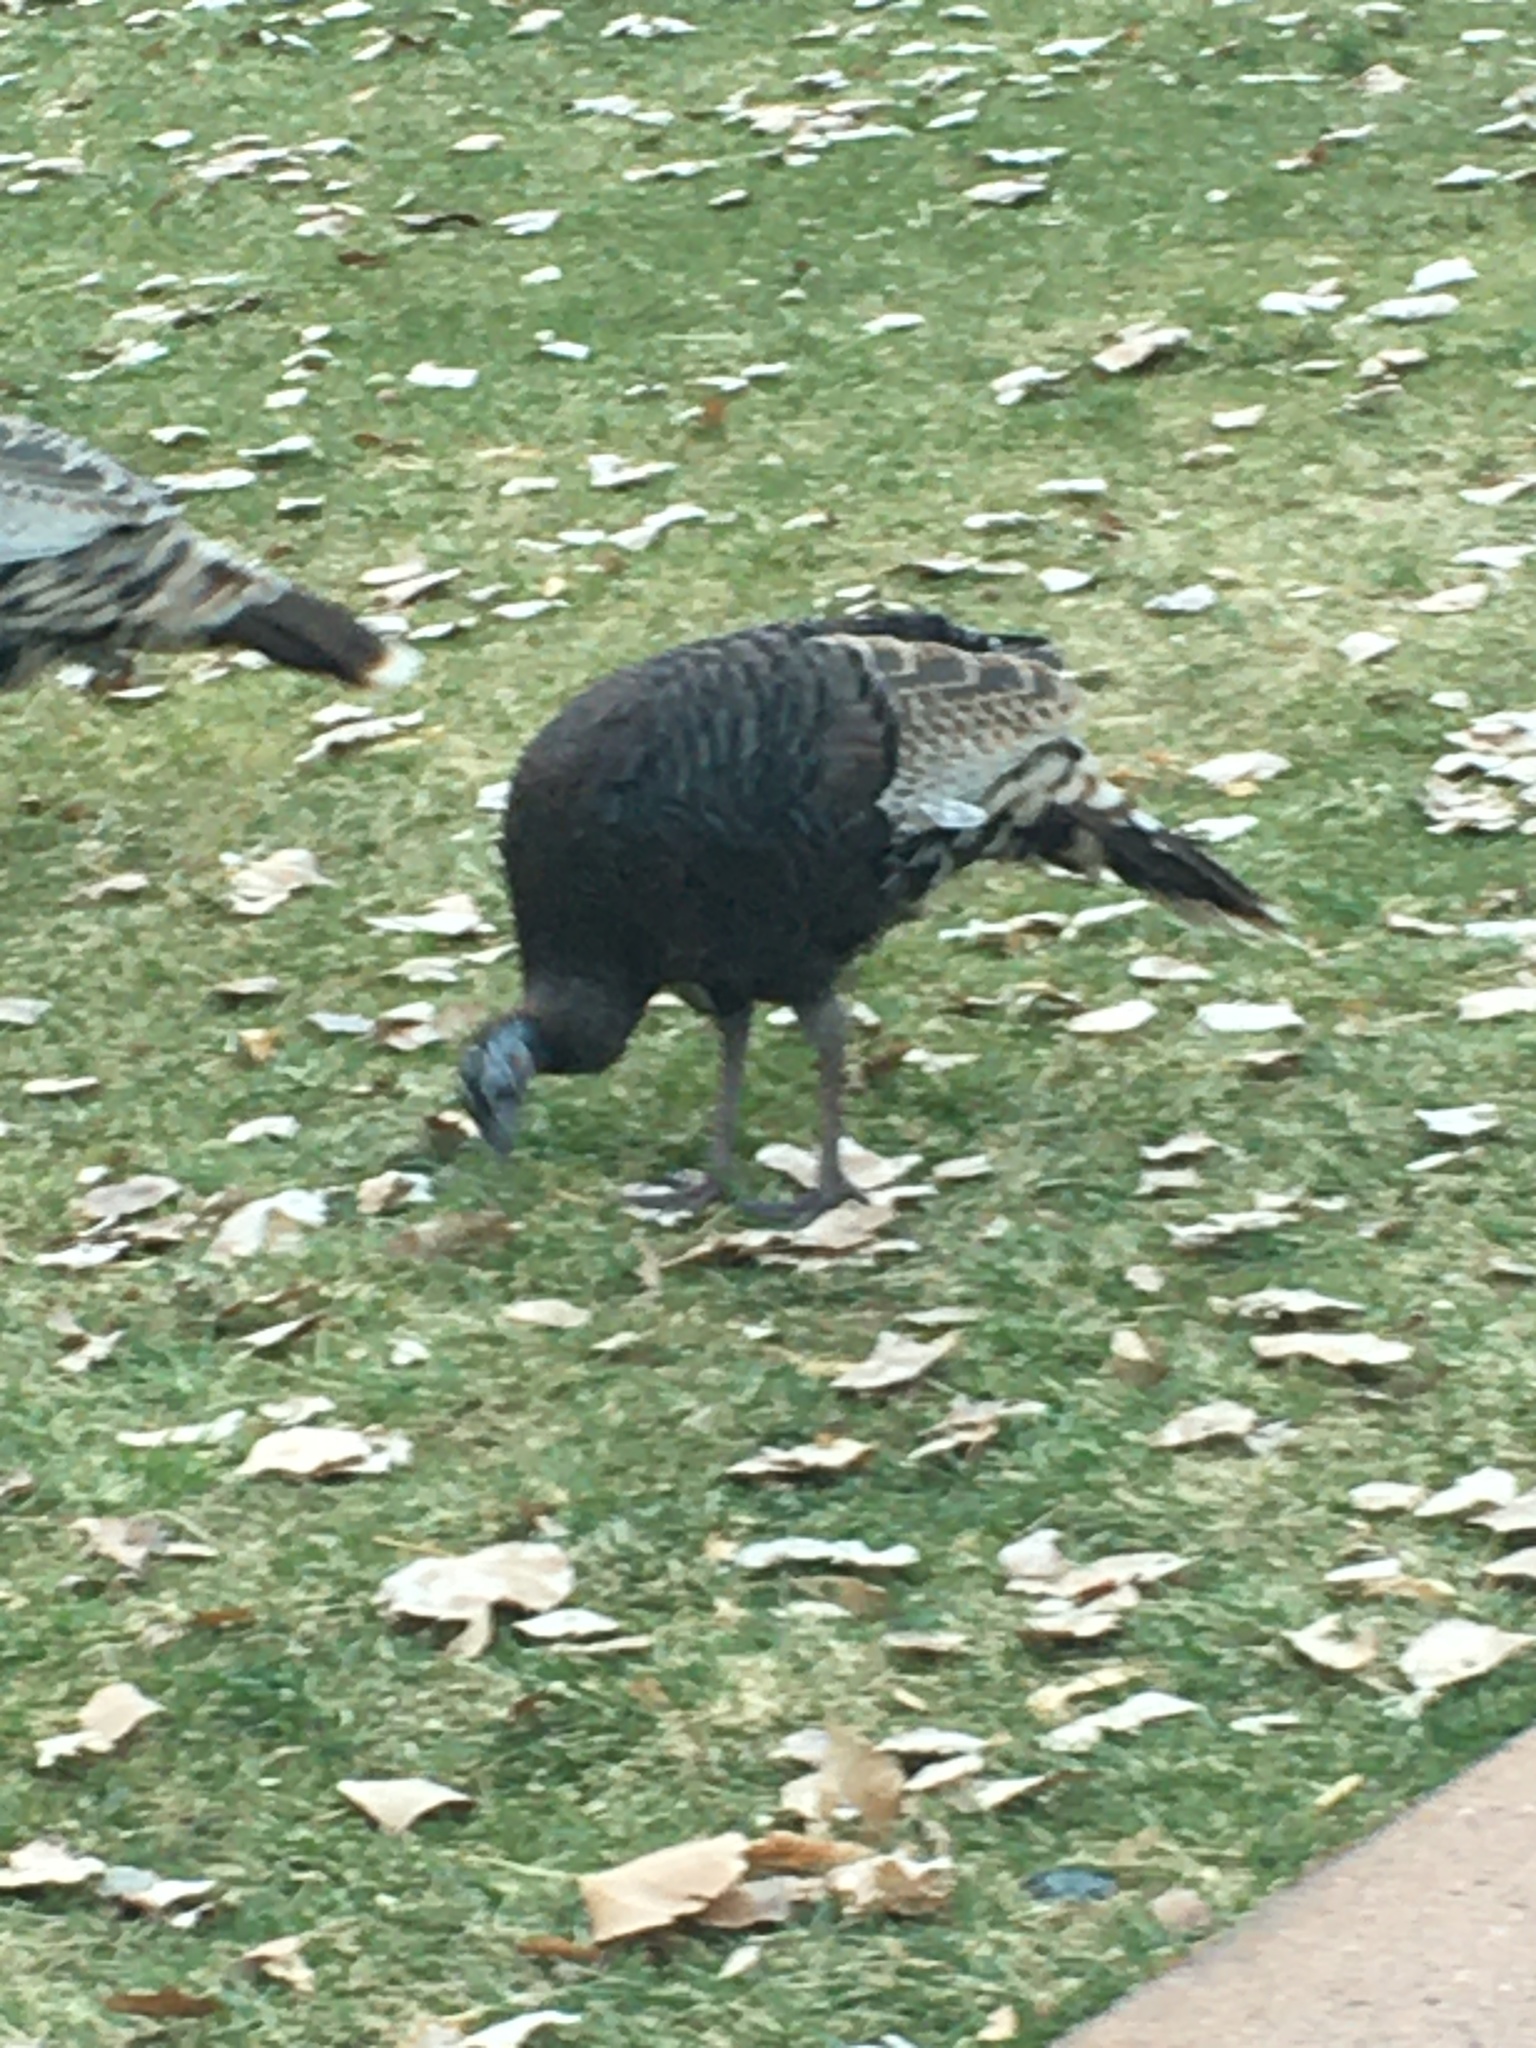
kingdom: Animalia
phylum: Chordata
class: Aves
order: Galliformes
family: Phasianidae
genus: Meleagris
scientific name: Meleagris gallopavo
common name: Wild turkey
